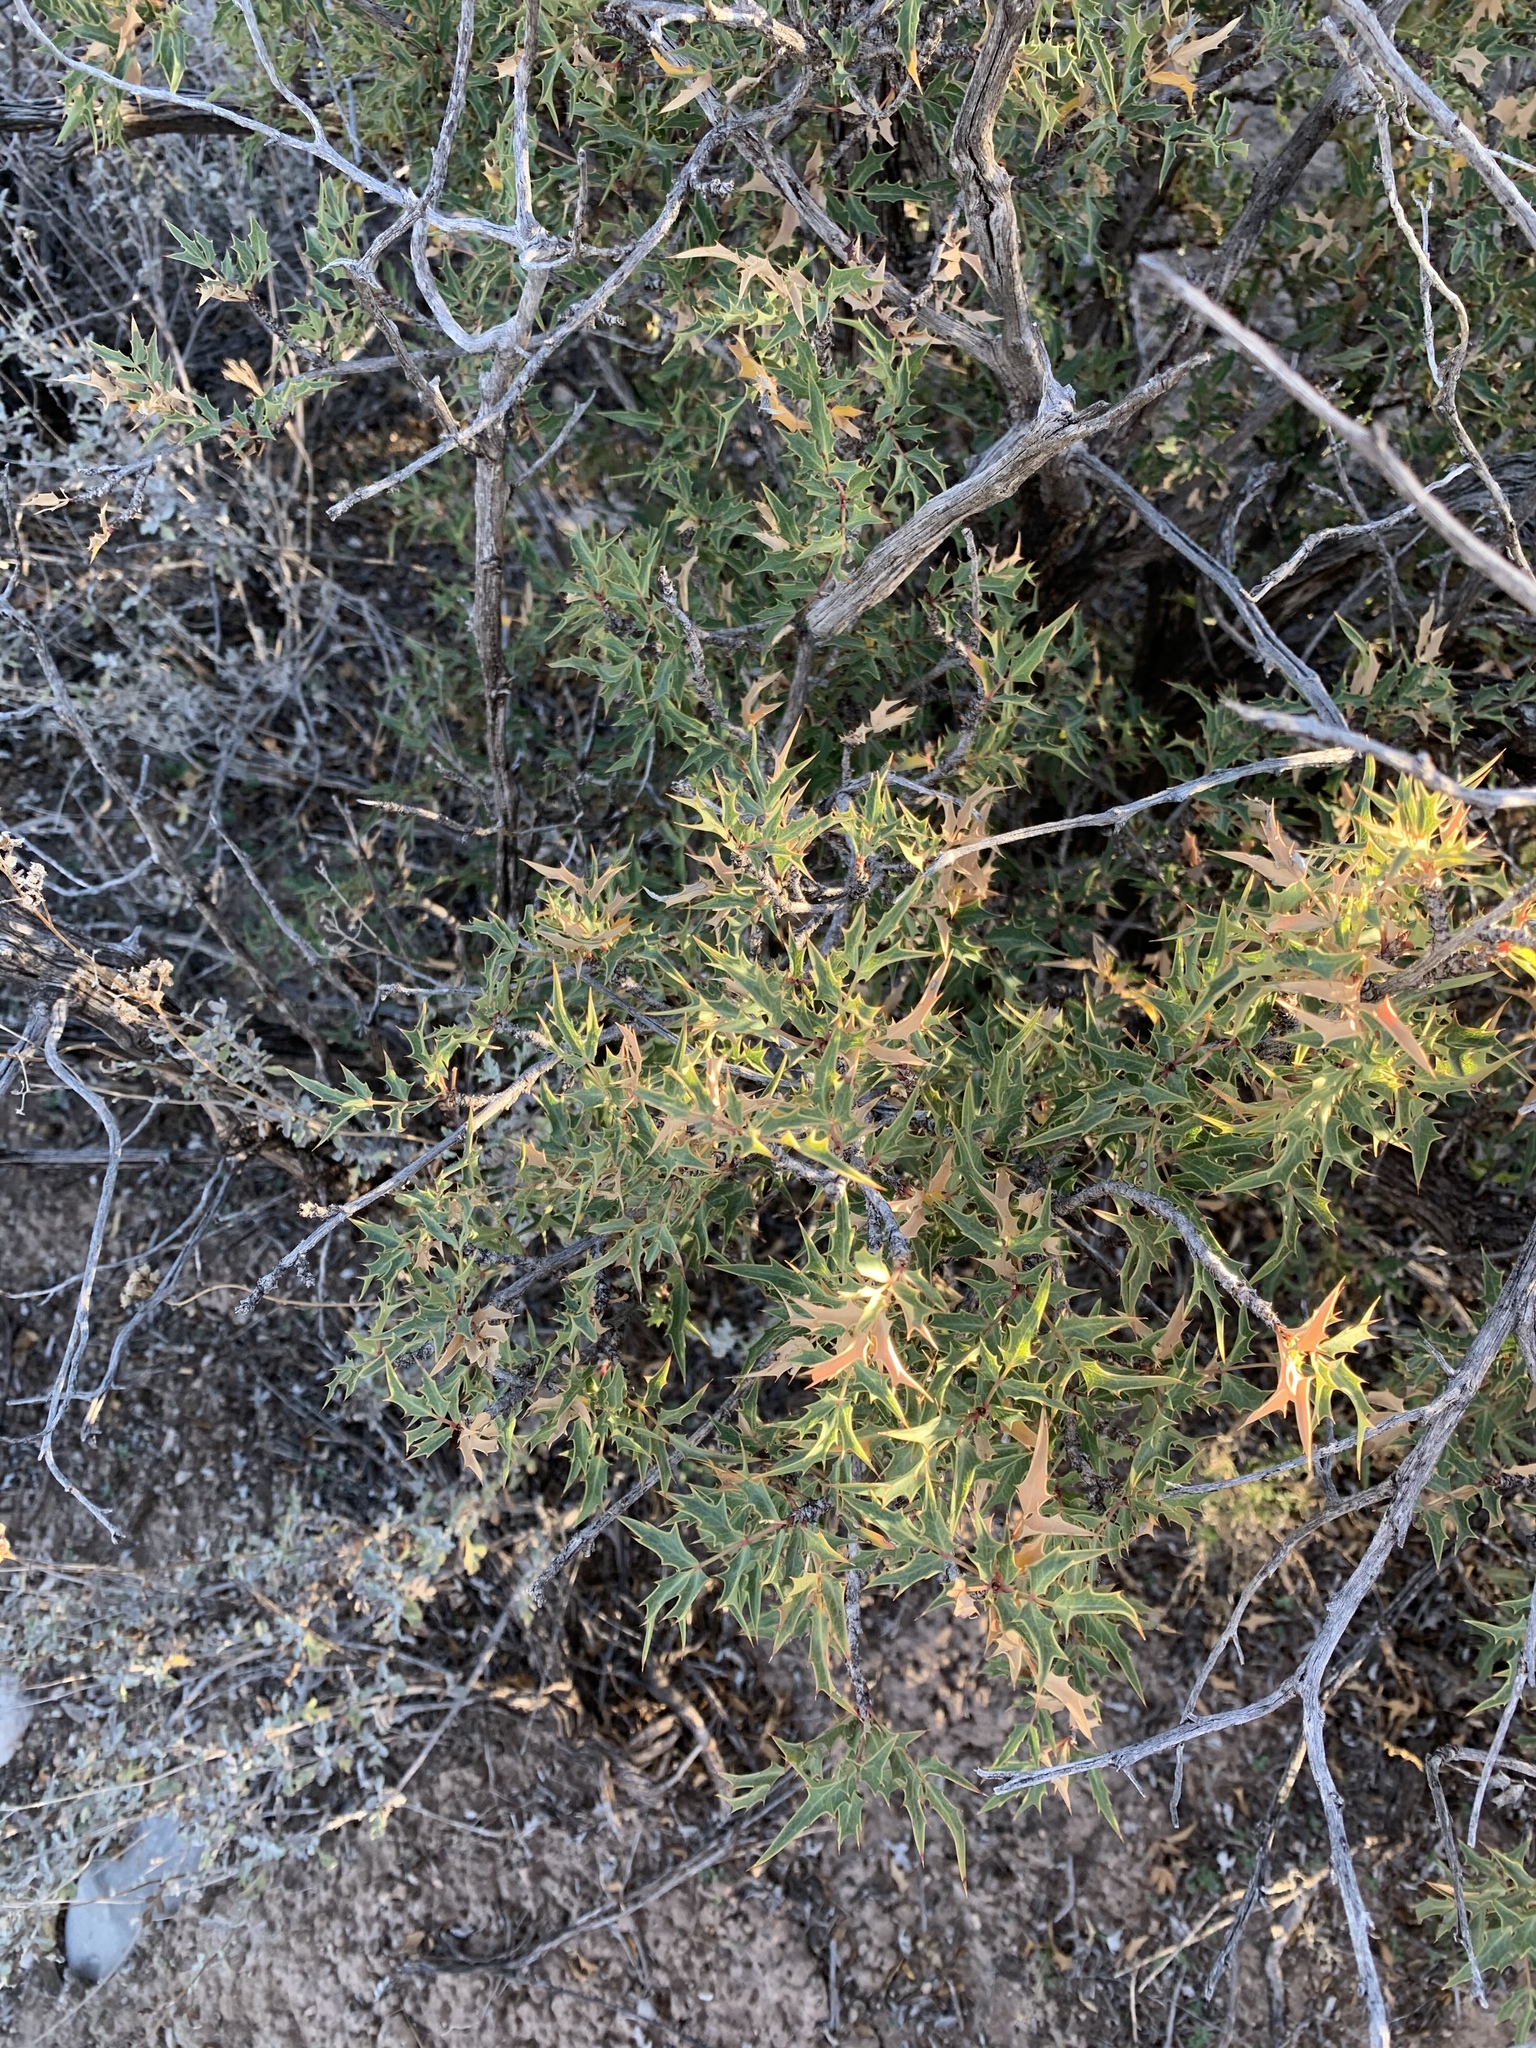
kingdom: Plantae
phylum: Tracheophyta
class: Magnoliopsida
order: Ranunculales
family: Berberidaceae
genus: Alloberberis
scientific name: Alloberberis haematocarpa
